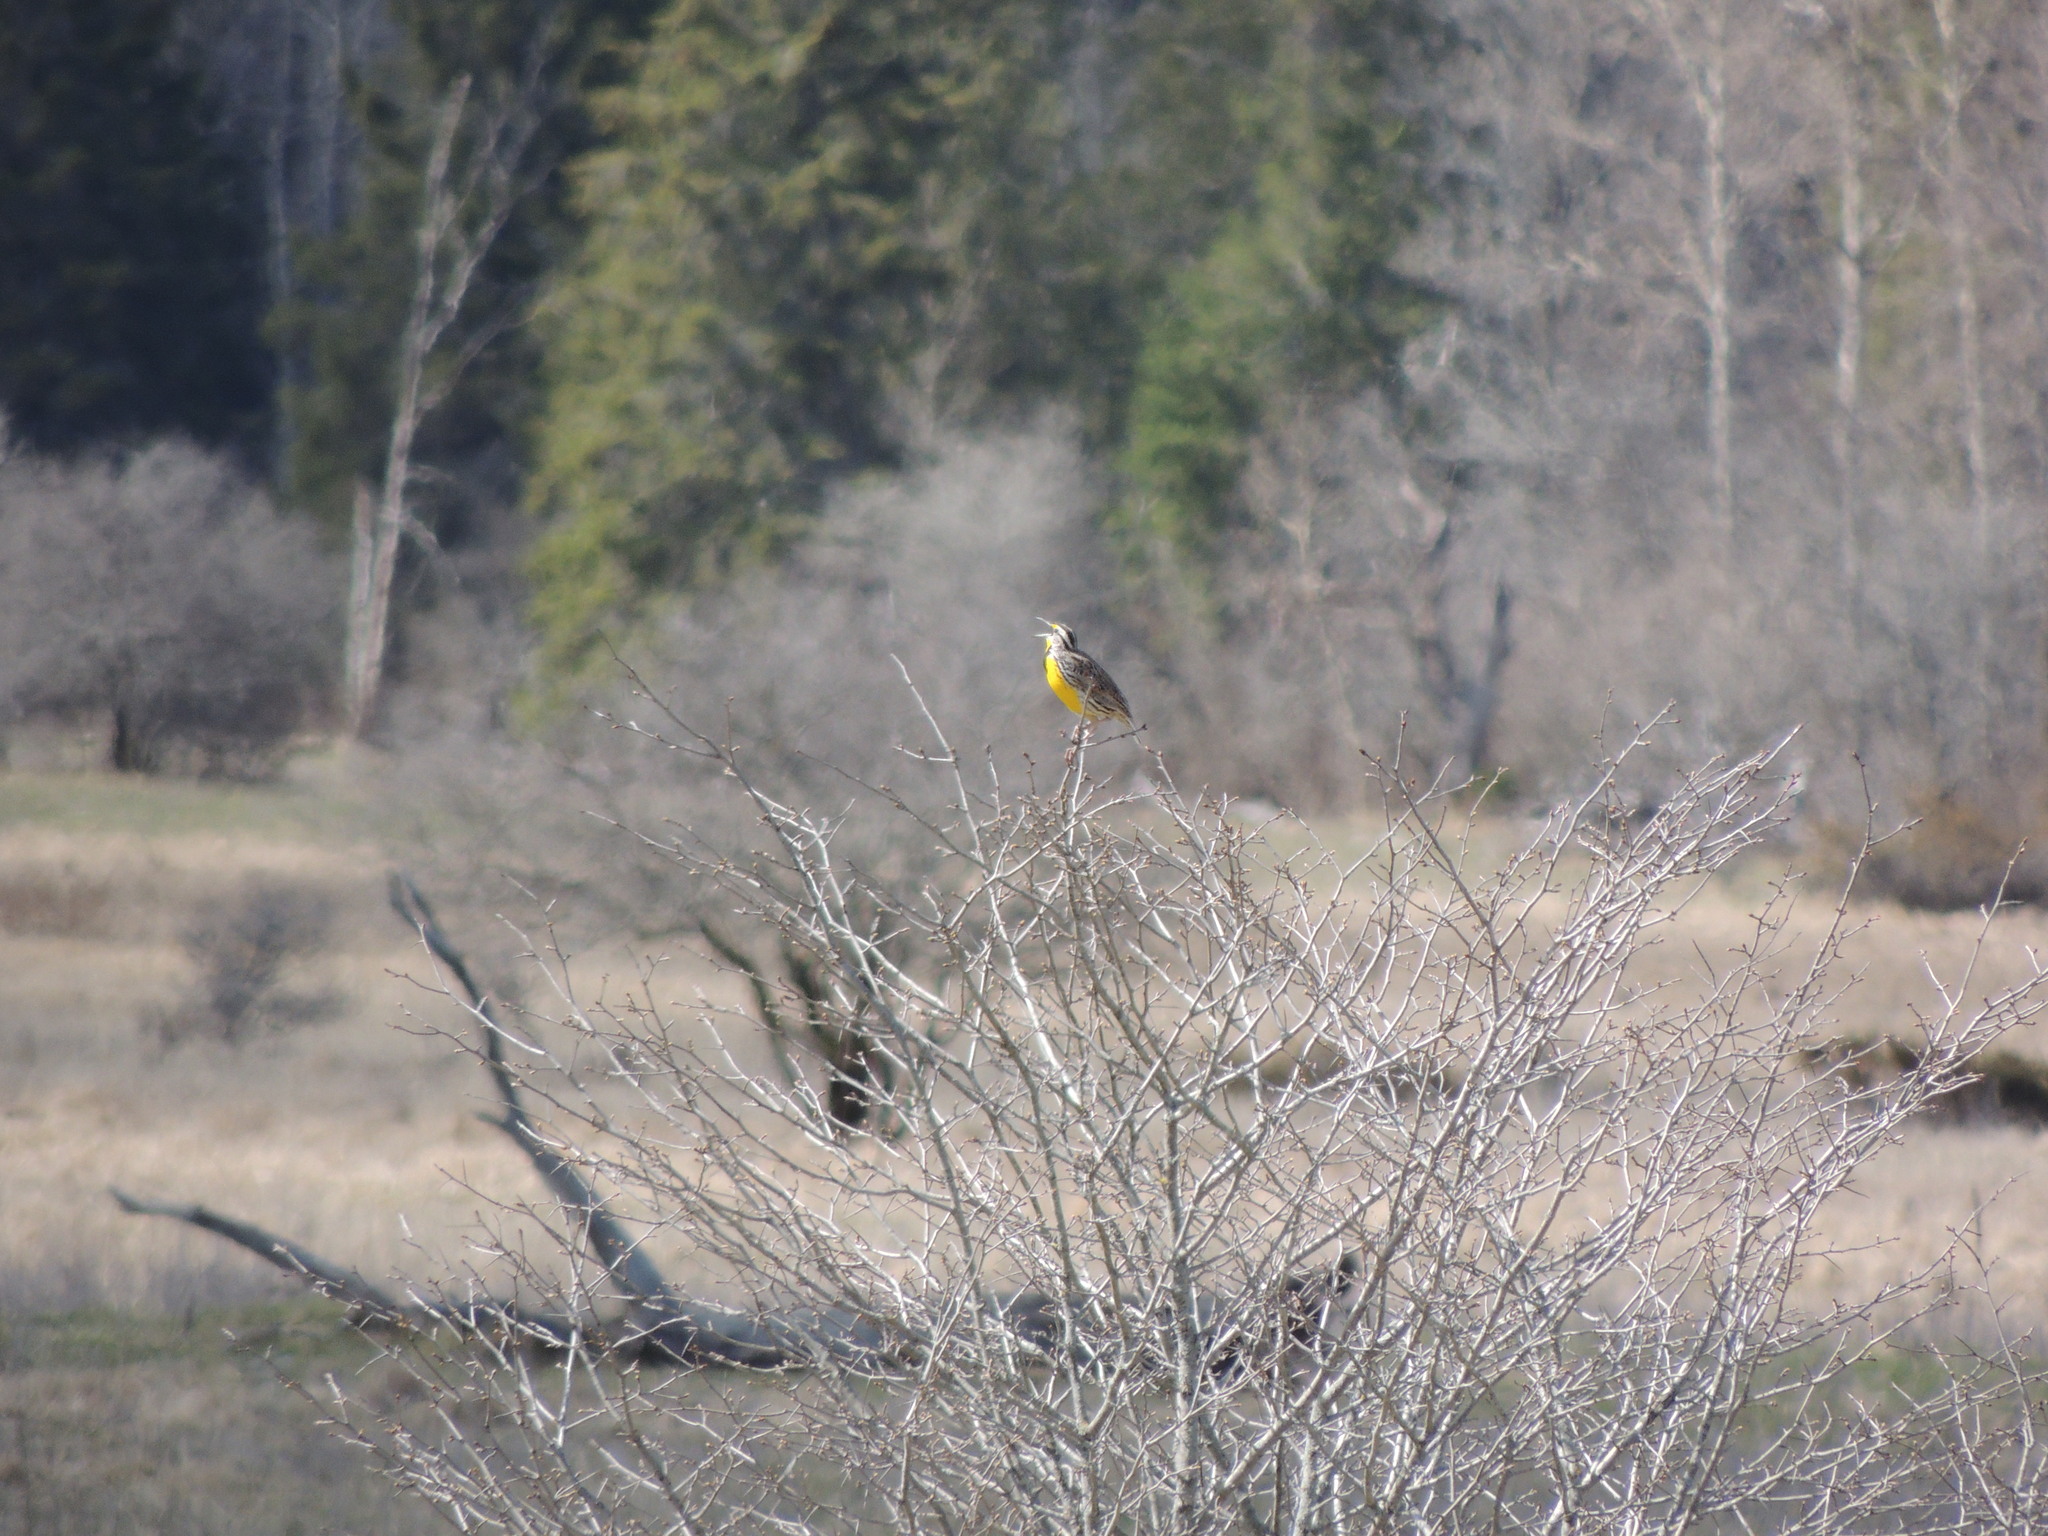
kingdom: Animalia
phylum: Chordata
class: Aves
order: Passeriformes
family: Icteridae
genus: Sturnella
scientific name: Sturnella magna
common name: Eastern meadowlark
